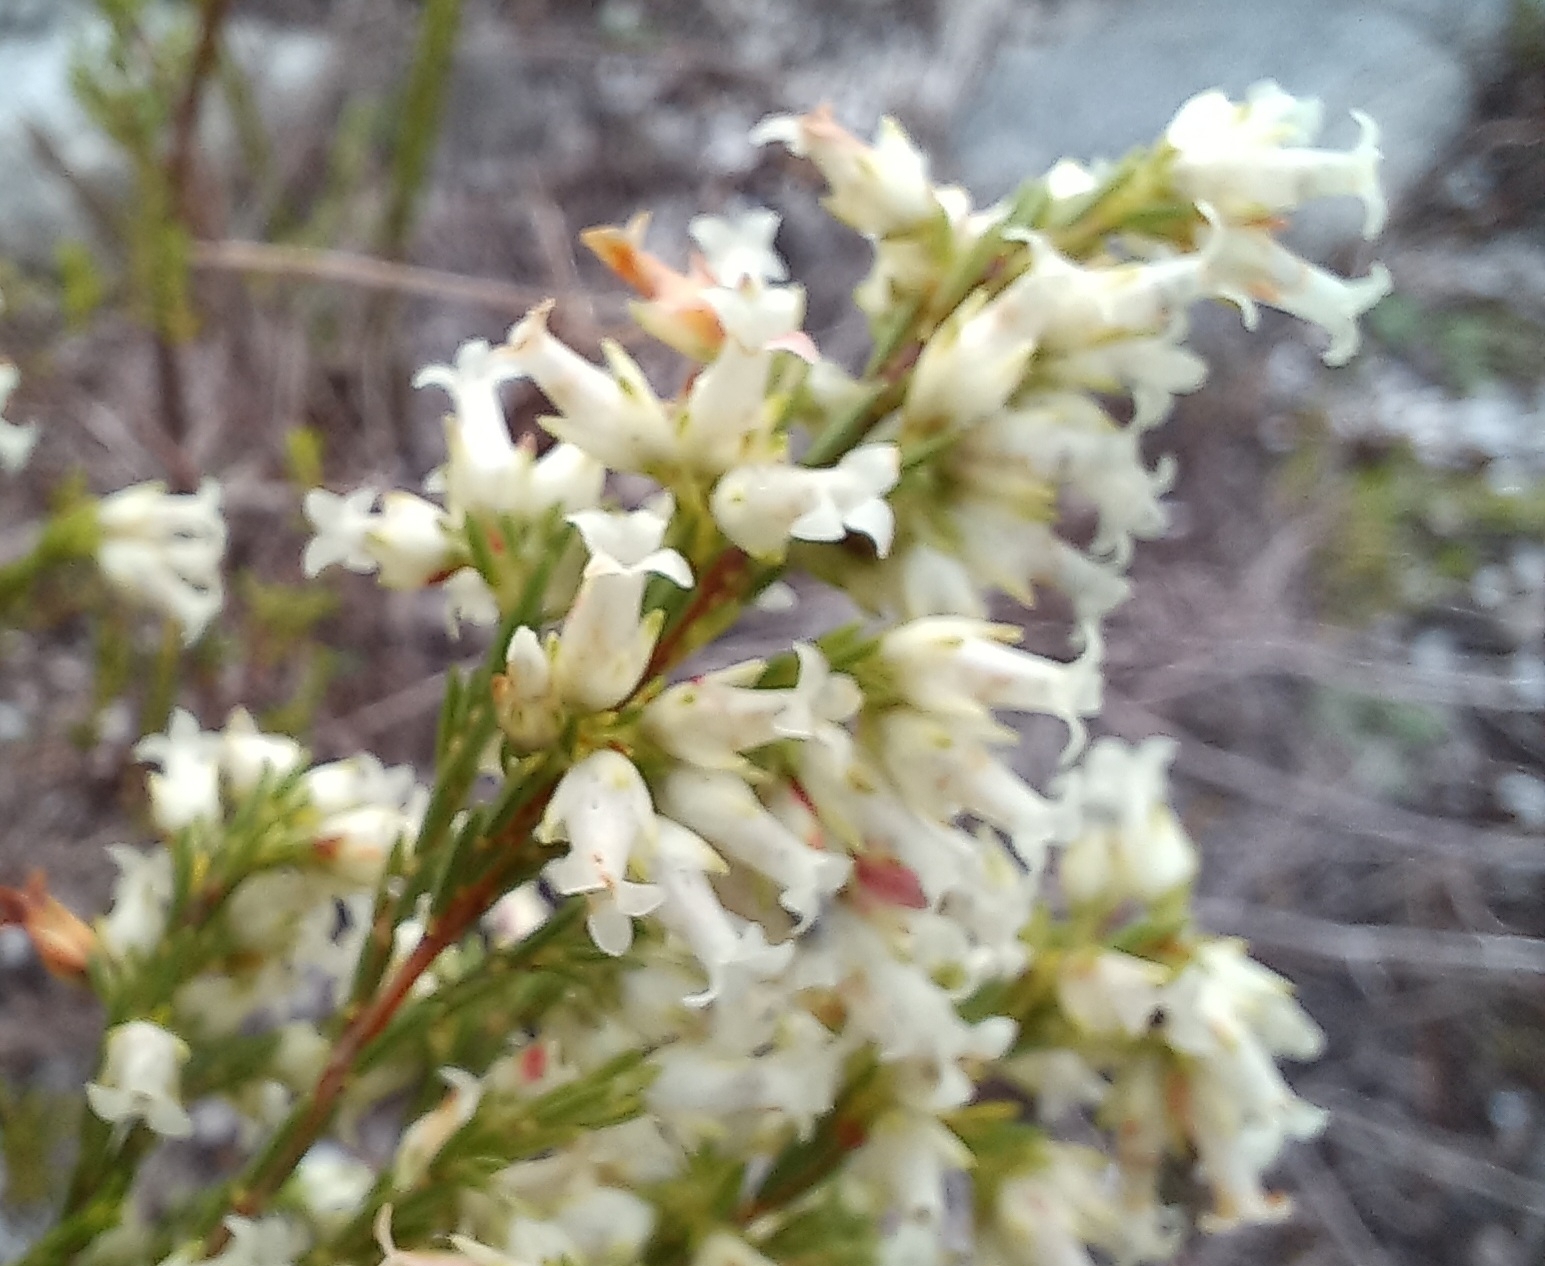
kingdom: Plantae
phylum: Tracheophyta
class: Magnoliopsida
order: Ericales
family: Ericaceae
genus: Erica
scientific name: Erica lutea
